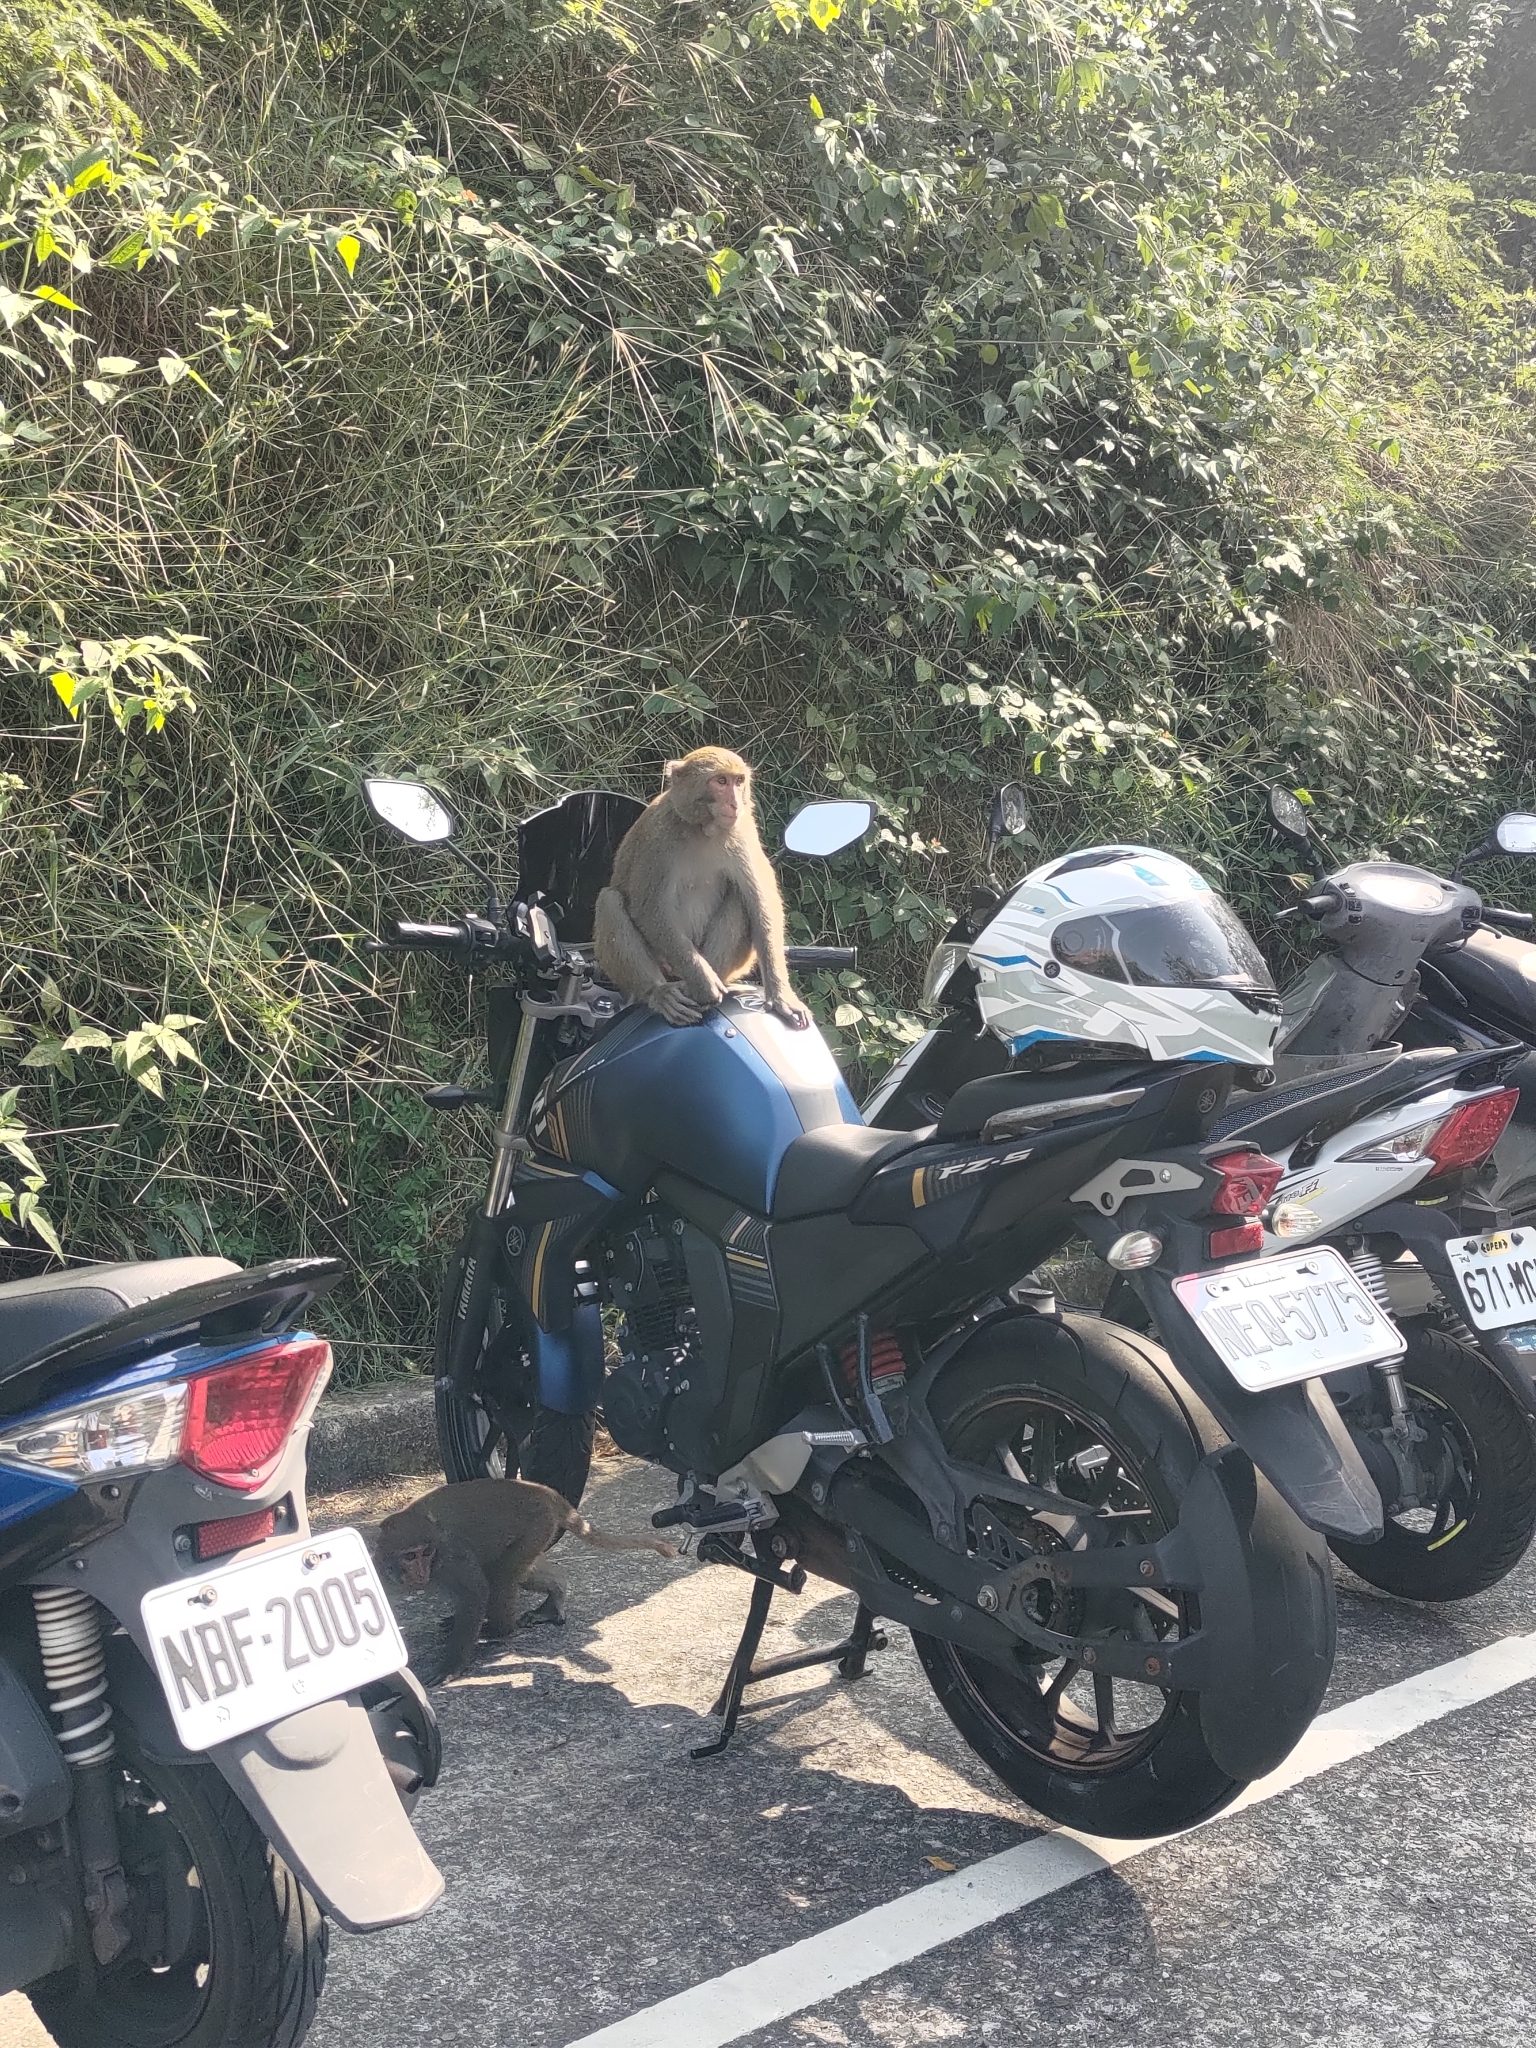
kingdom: Animalia
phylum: Chordata
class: Mammalia
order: Primates
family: Cercopithecidae
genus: Macaca
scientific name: Macaca cyclopis
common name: Formosan rock macaque
